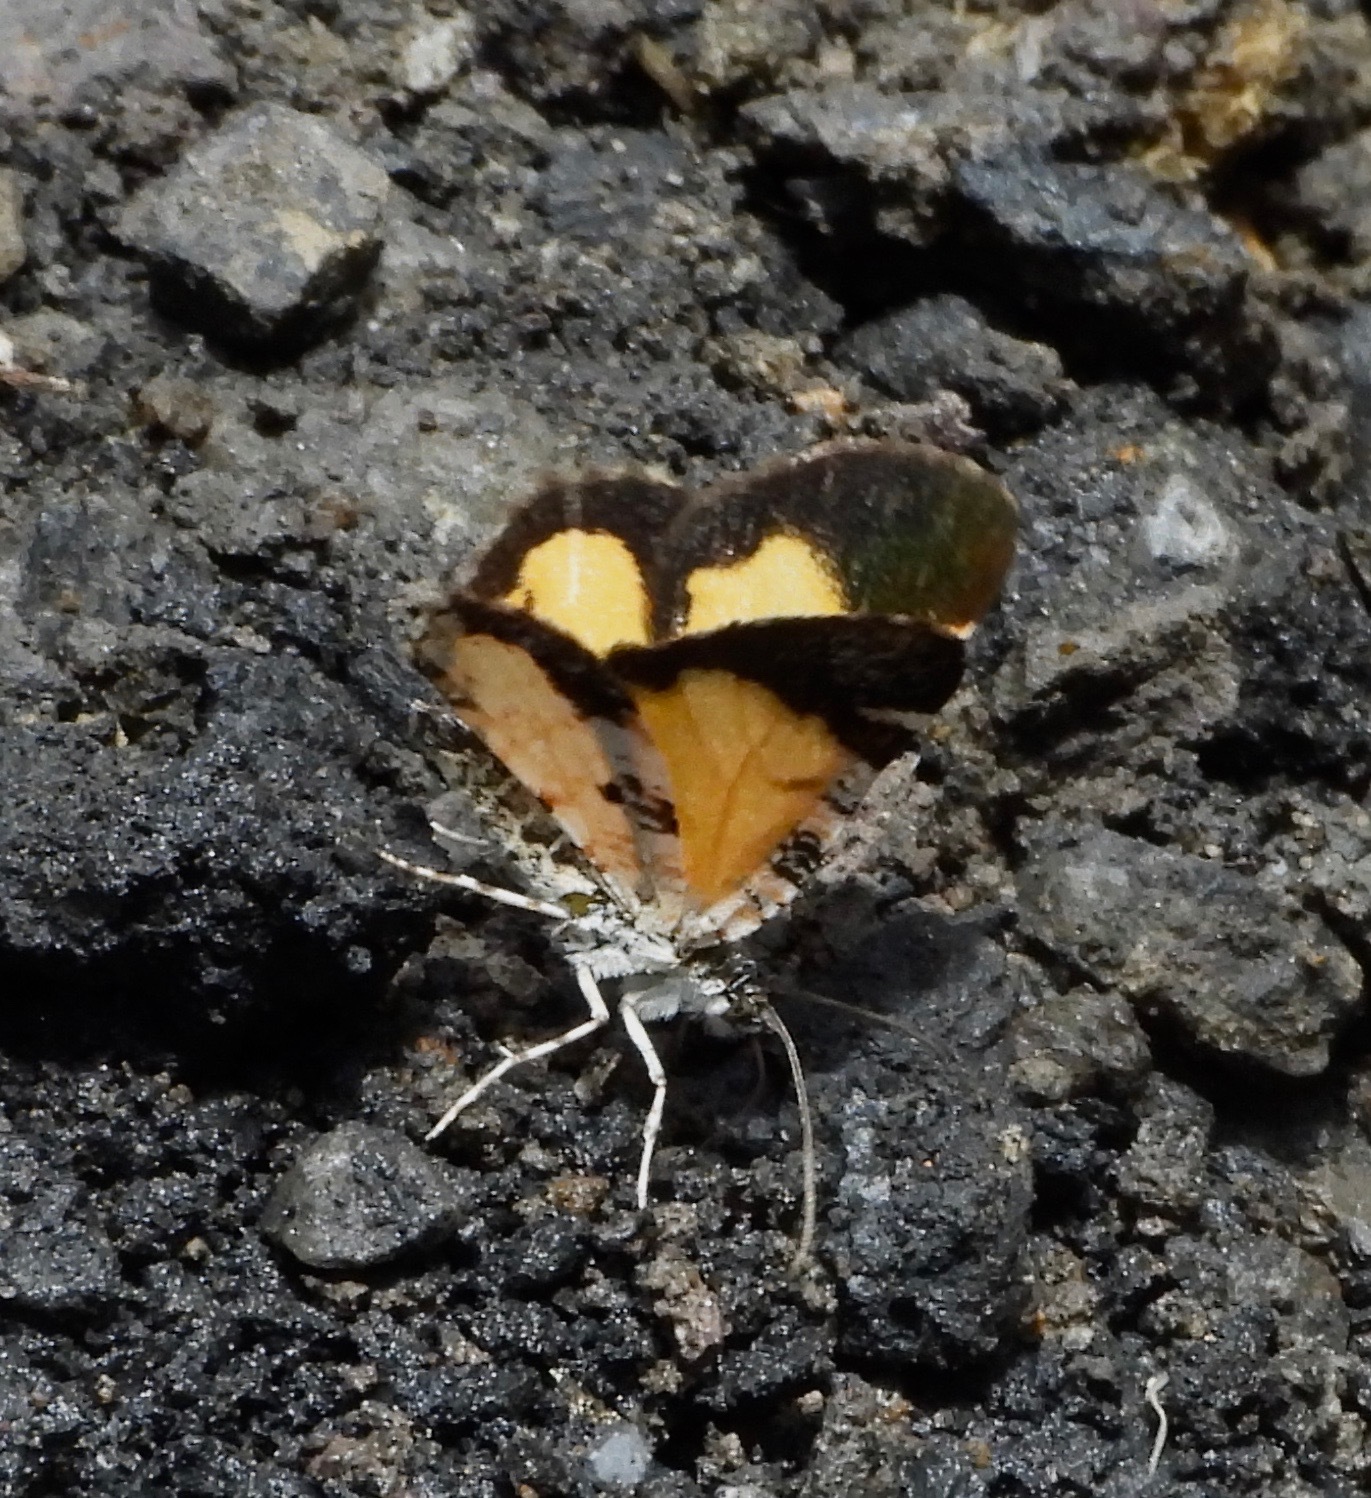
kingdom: Animalia
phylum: Arthropoda
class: Insecta
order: Lepidoptera
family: Geometridae
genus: Heterusia
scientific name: Heterusia atalantata
